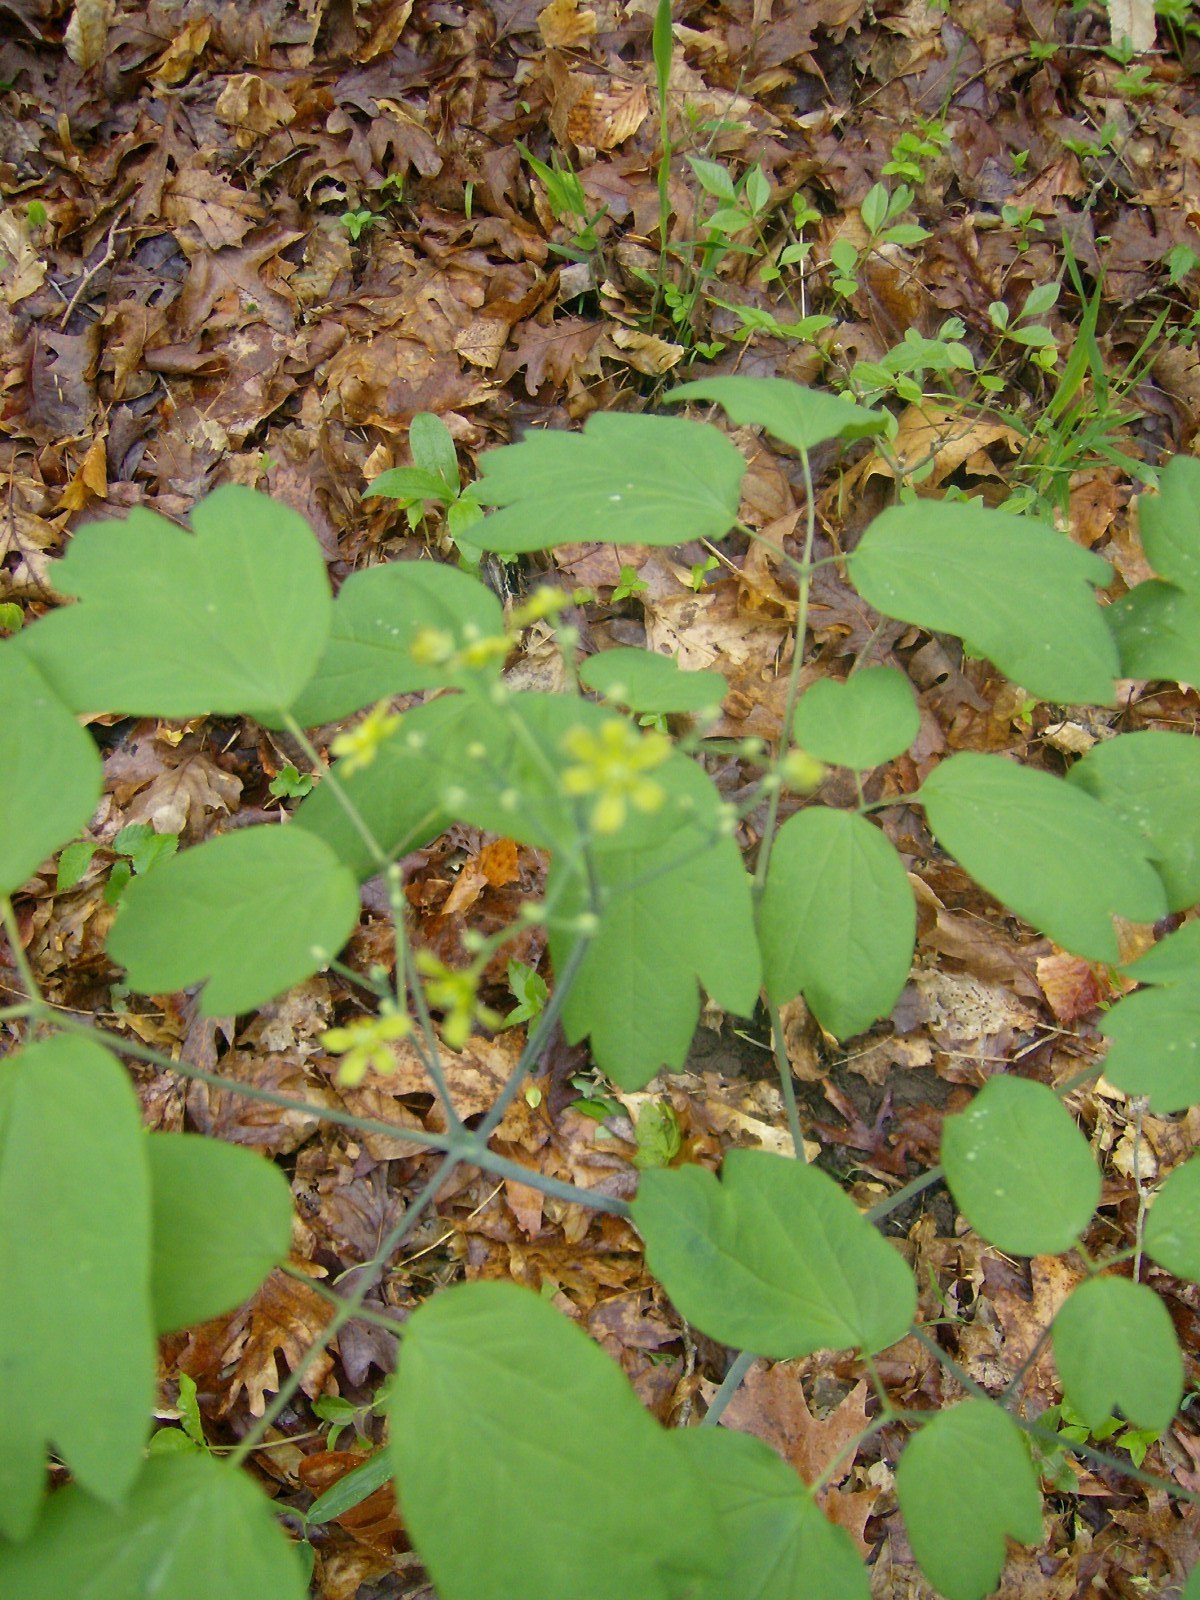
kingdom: Plantae
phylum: Tracheophyta
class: Magnoliopsida
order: Ranunculales
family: Berberidaceae
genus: Caulophyllum
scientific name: Caulophyllum thalictroides
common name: Blue cohosh
